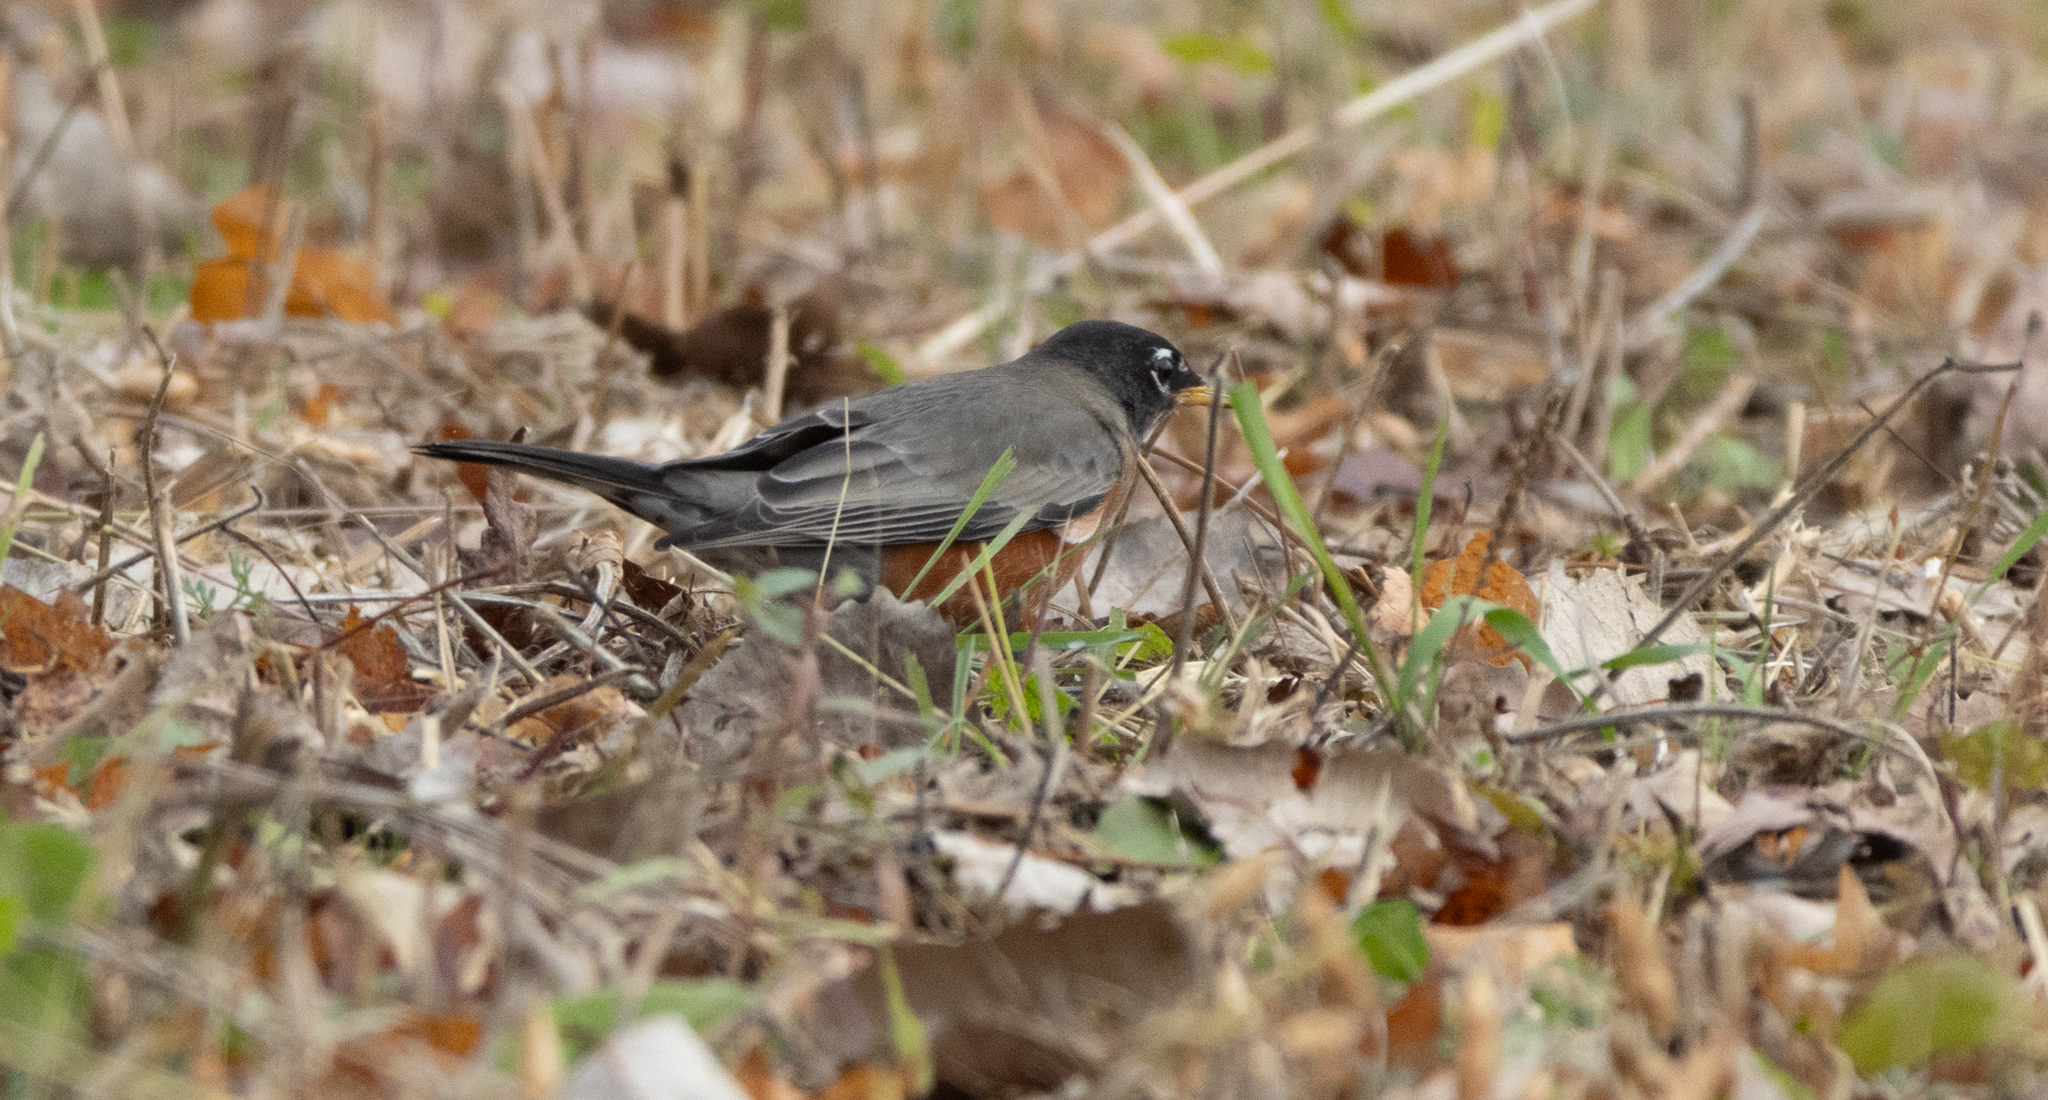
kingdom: Animalia
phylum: Chordata
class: Aves
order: Passeriformes
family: Turdidae
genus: Turdus
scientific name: Turdus migratorius
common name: American robin
